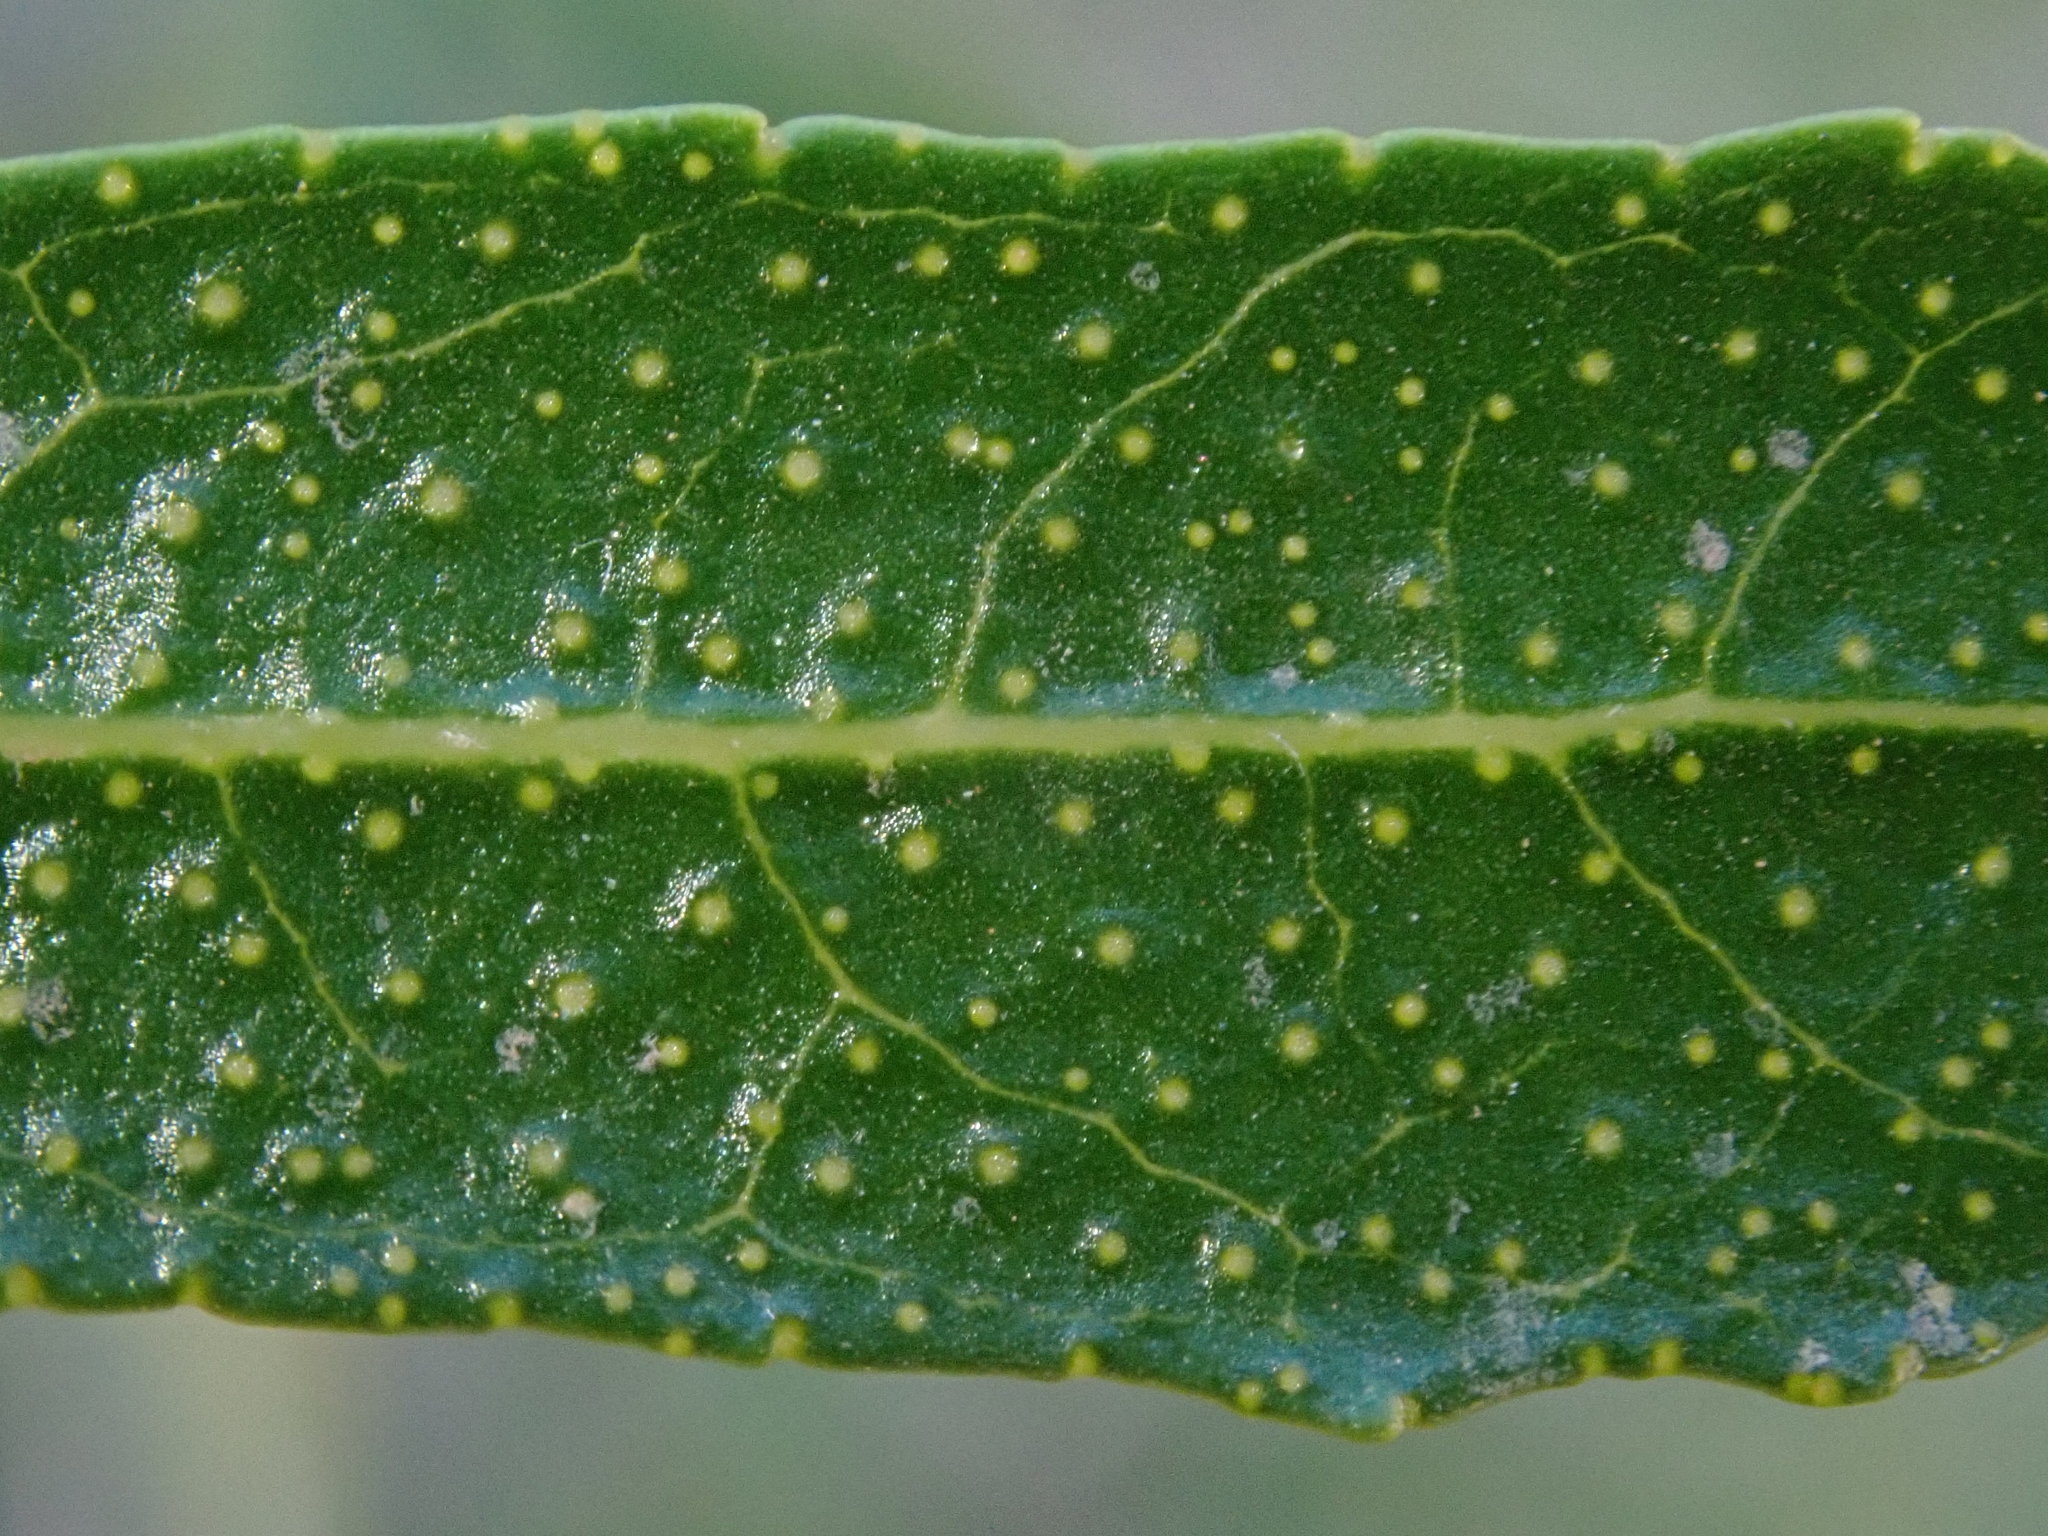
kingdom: Plantae
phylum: Tracheophyta
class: Magnoliopsida
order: Sapindales
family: Rutaceae
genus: Ptelea
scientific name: Ptelea trifoliata
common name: Common hop-tree
